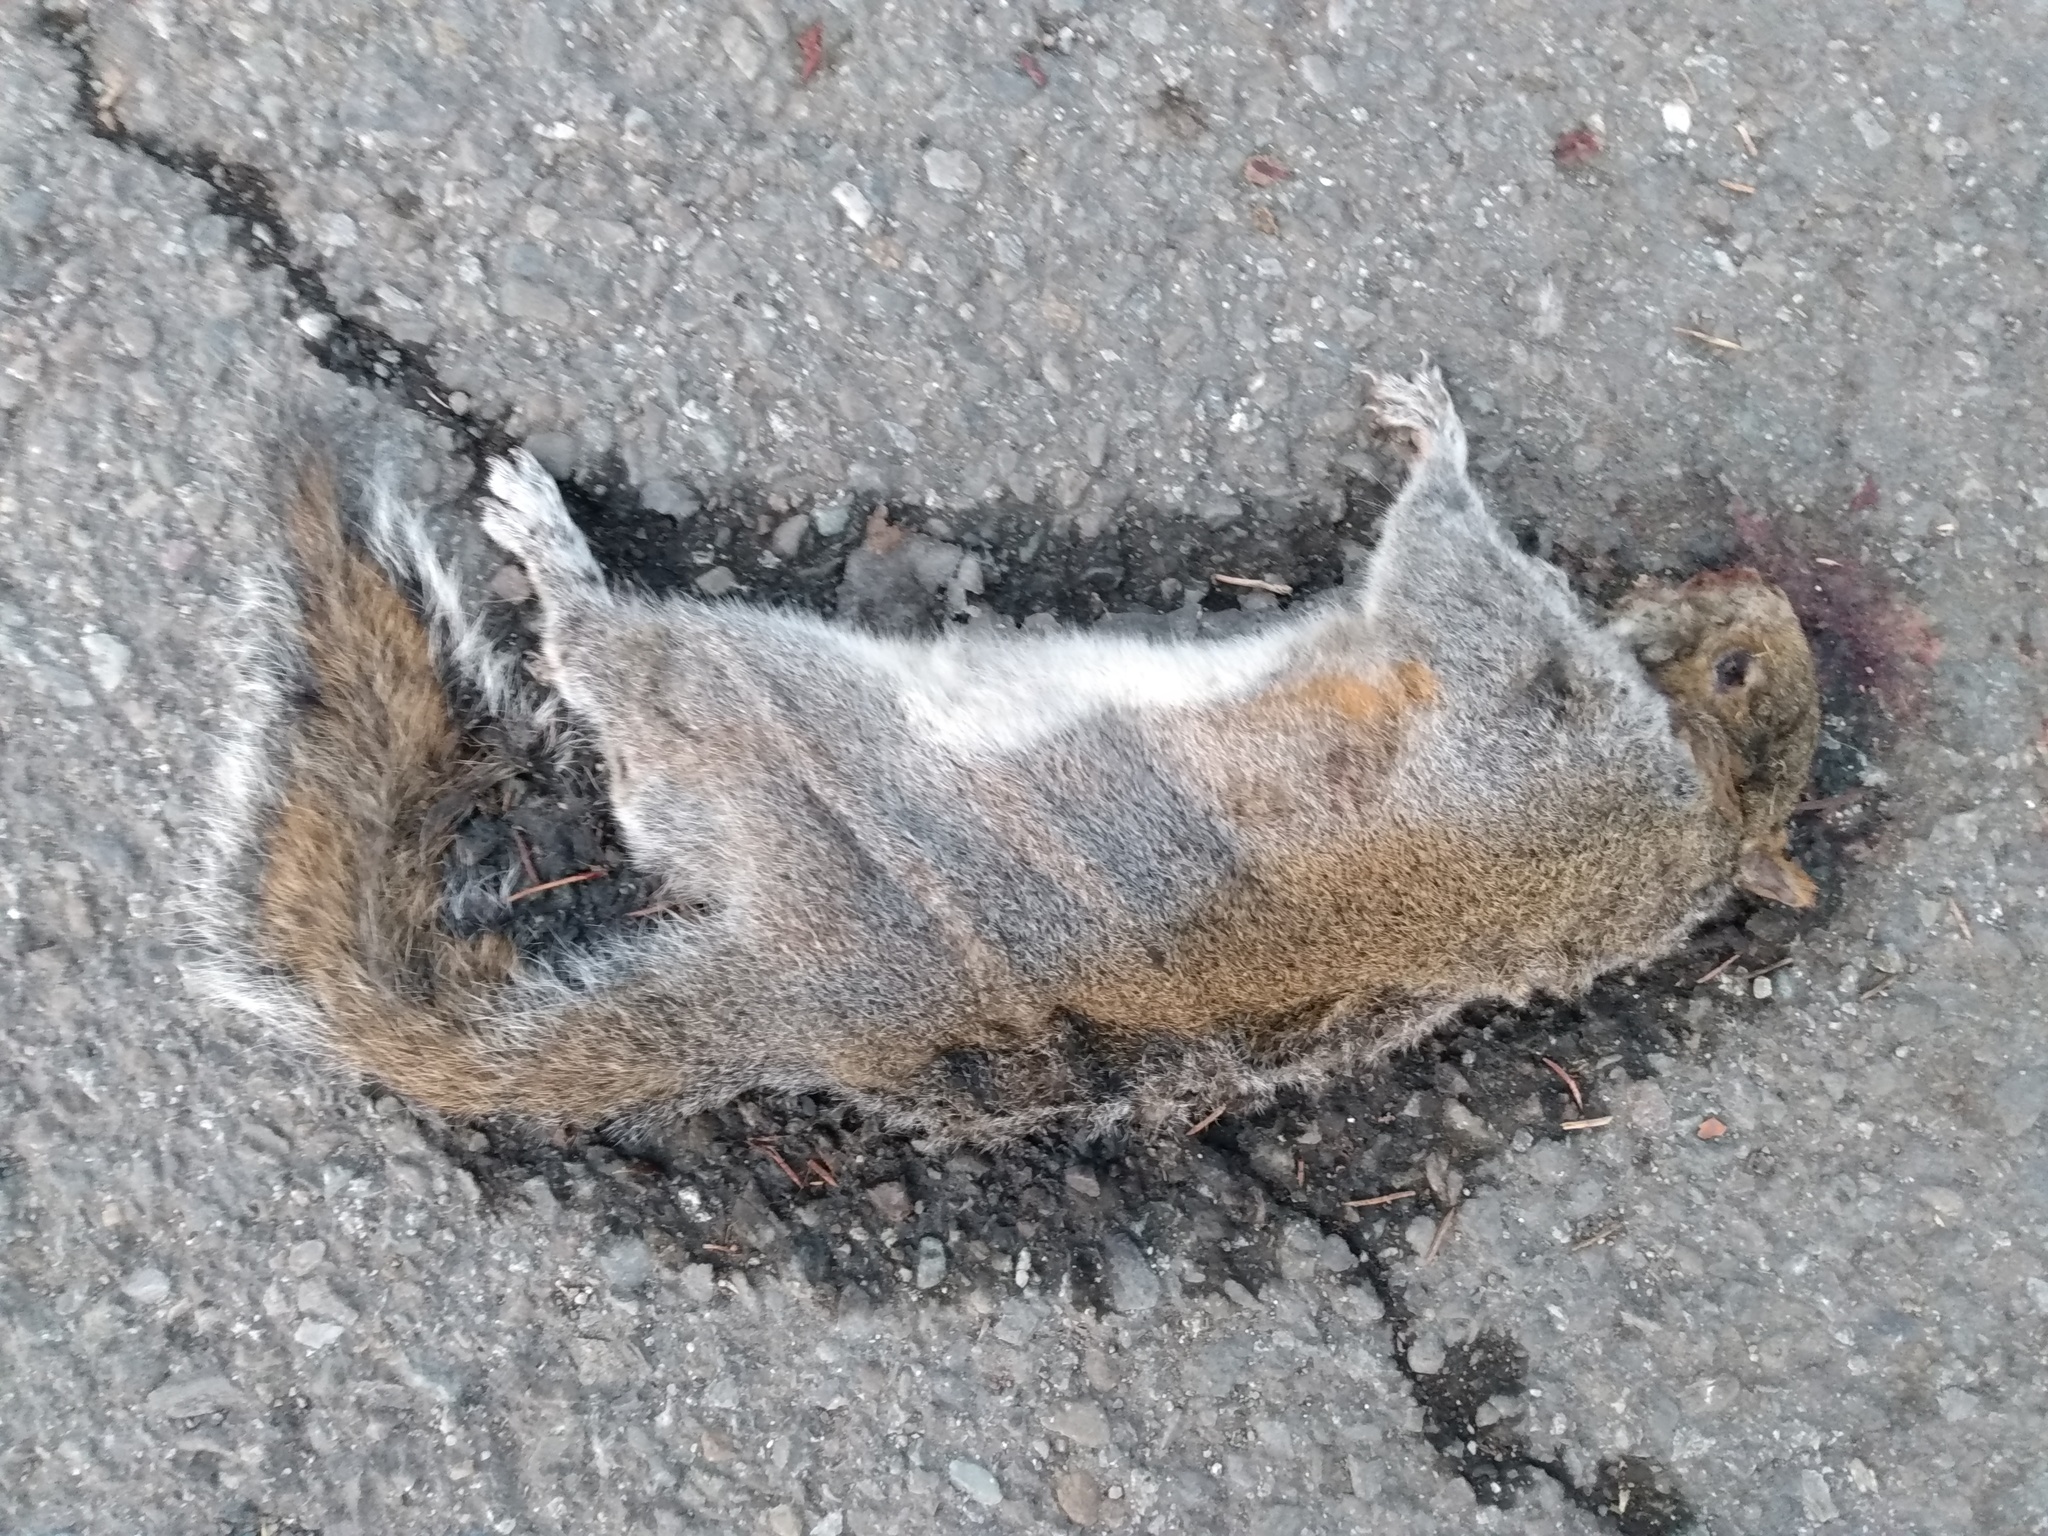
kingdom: Animalia
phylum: Chordata
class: Mammalia
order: Rodentia
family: Sciuridae
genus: Sciurus
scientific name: Sciurus carolinensis
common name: Eastern gray squirrel
